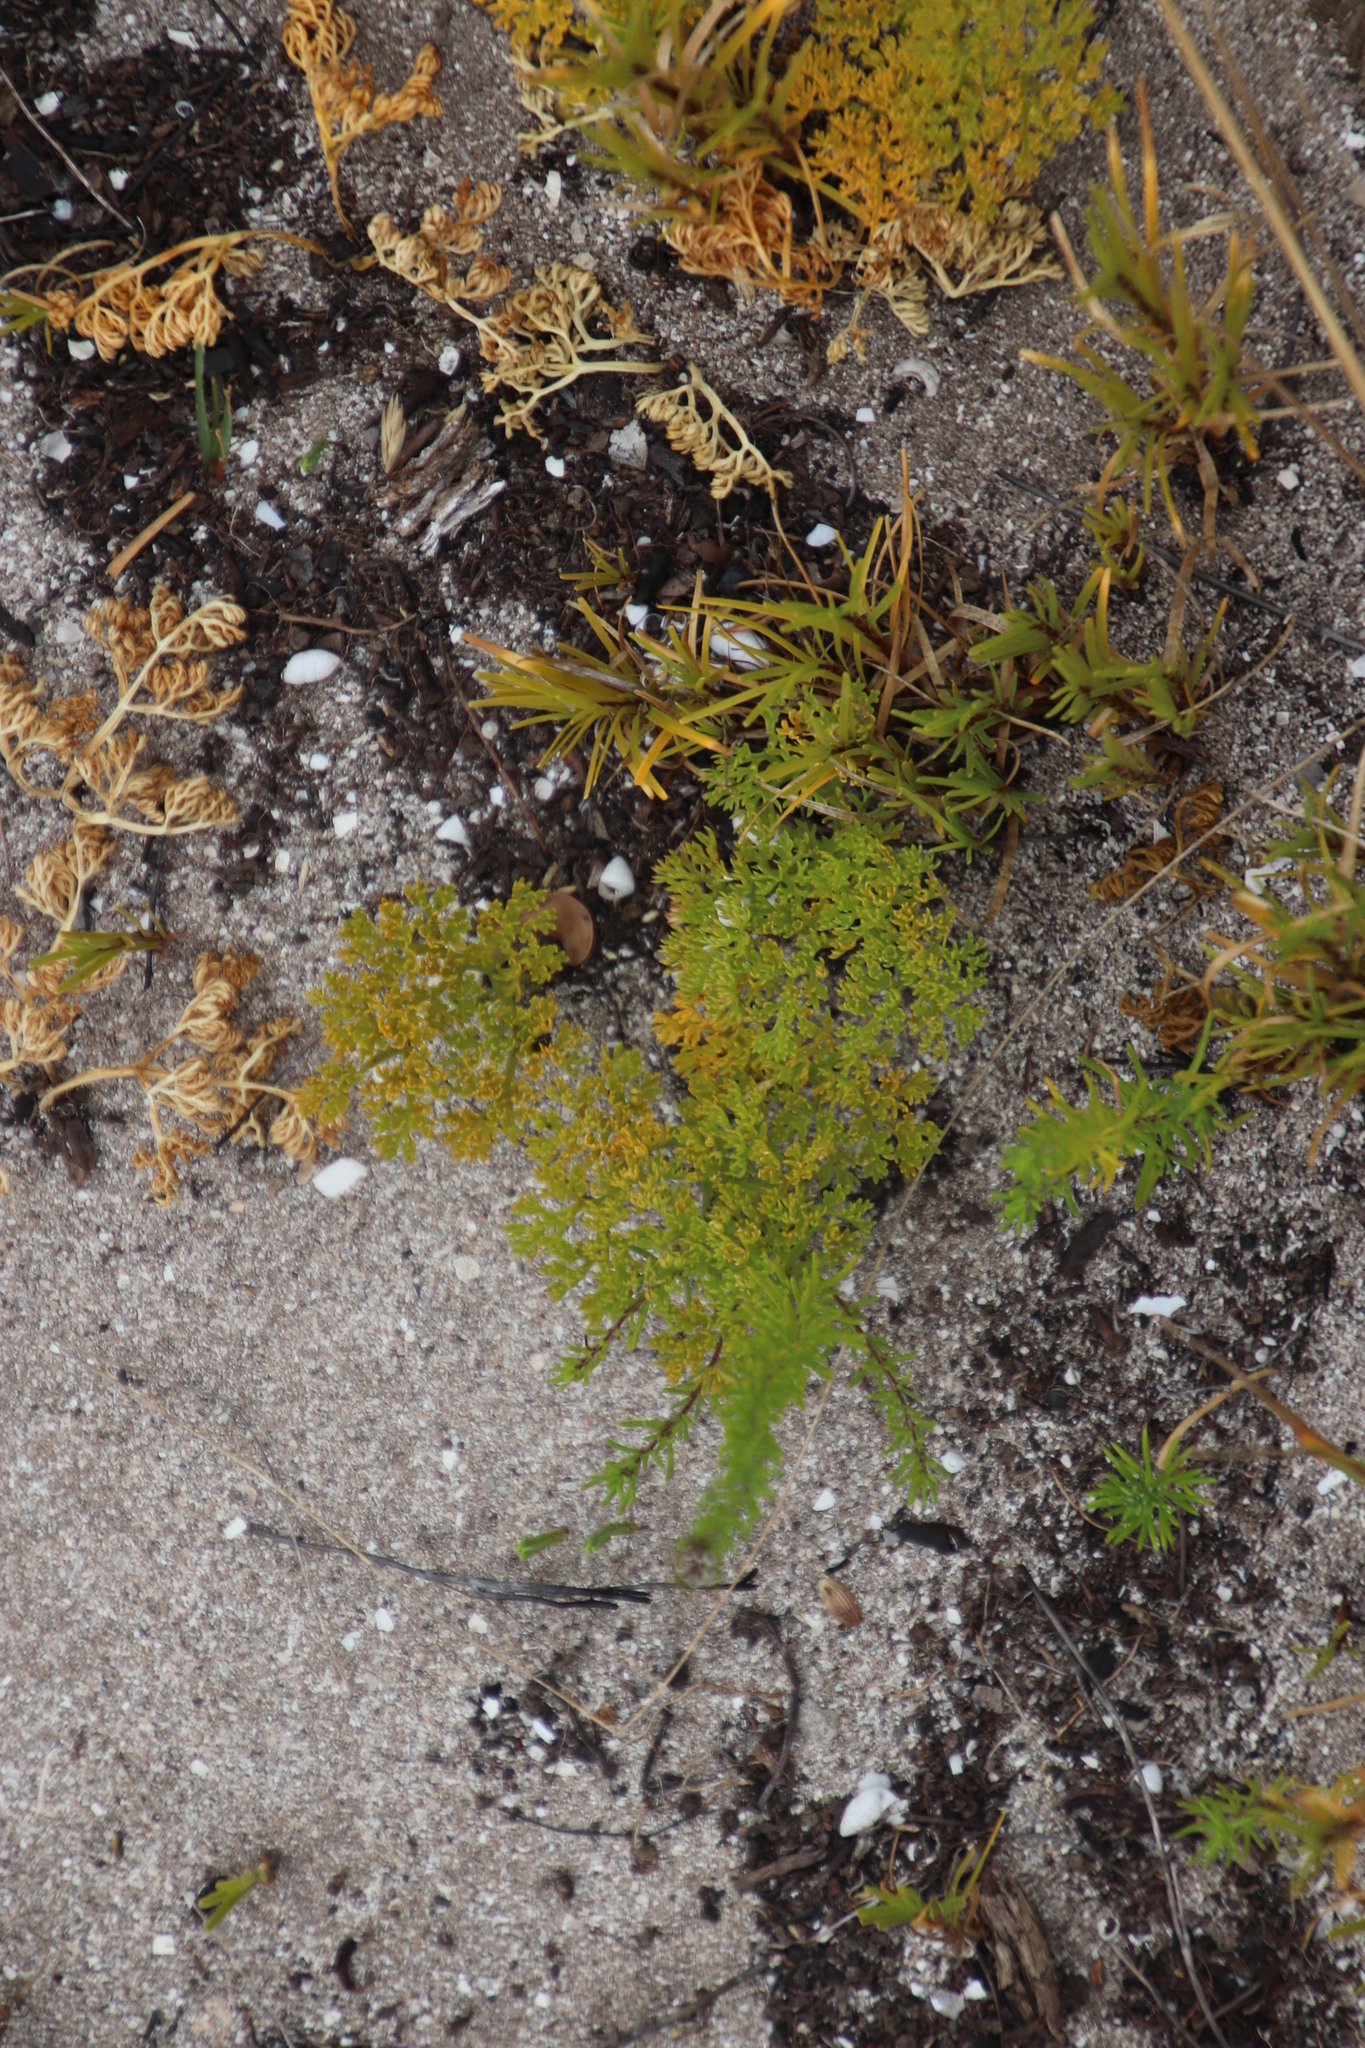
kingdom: Plantae
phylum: Tracheophyta
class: Magnoliopsida
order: Apiales
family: Apiaceae
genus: Annesorhiza
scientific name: Annesorhiza macrocarpa
